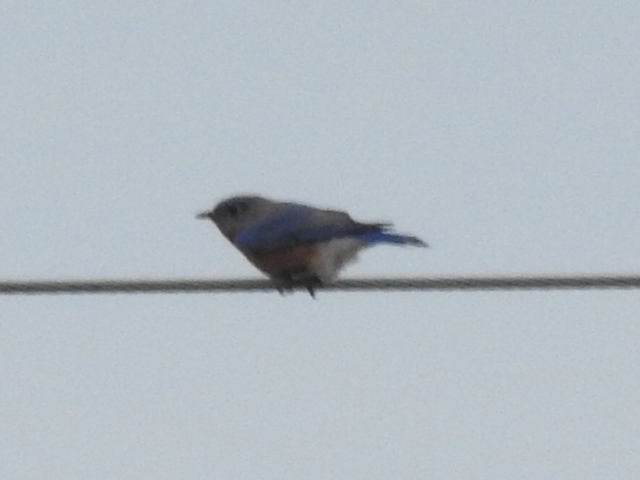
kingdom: Animalia
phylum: Chordata
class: Aves
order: Passeriformes
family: Turdidae
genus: Sialia
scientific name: Sialia sialis
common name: Eastern bluebird
